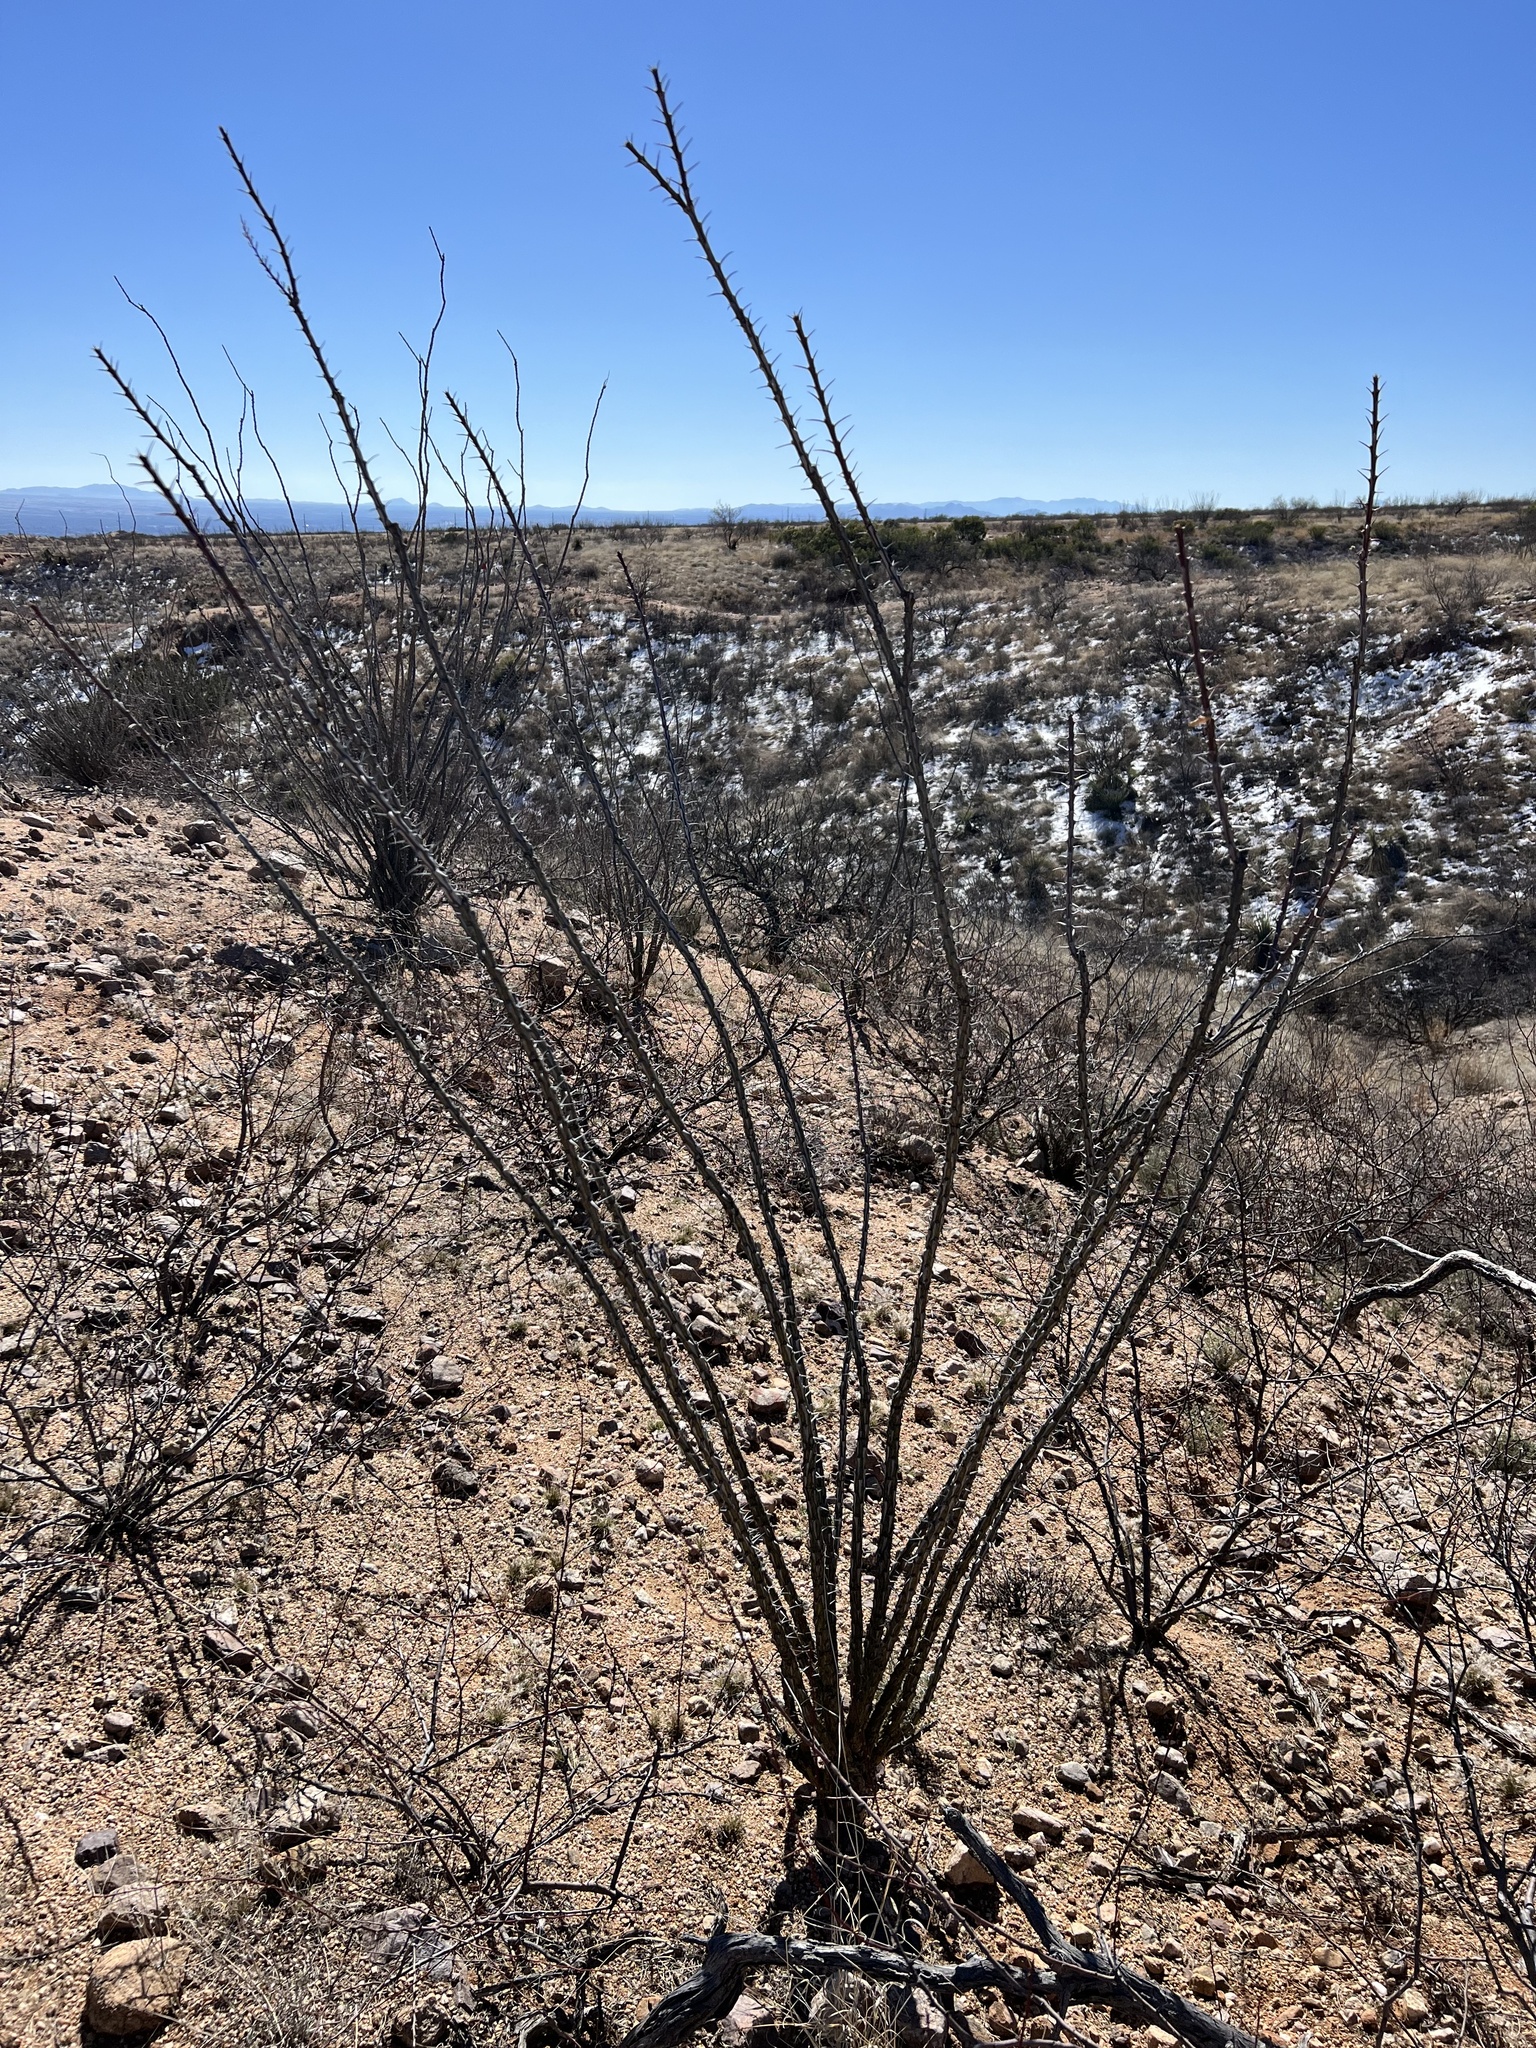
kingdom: Plantae
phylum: Tracheophyta
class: Magnoliopsida
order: Ericales
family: Fouquieriaceae
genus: Fouquieria
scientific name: Fouquieria splendens
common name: Vine-cactus
